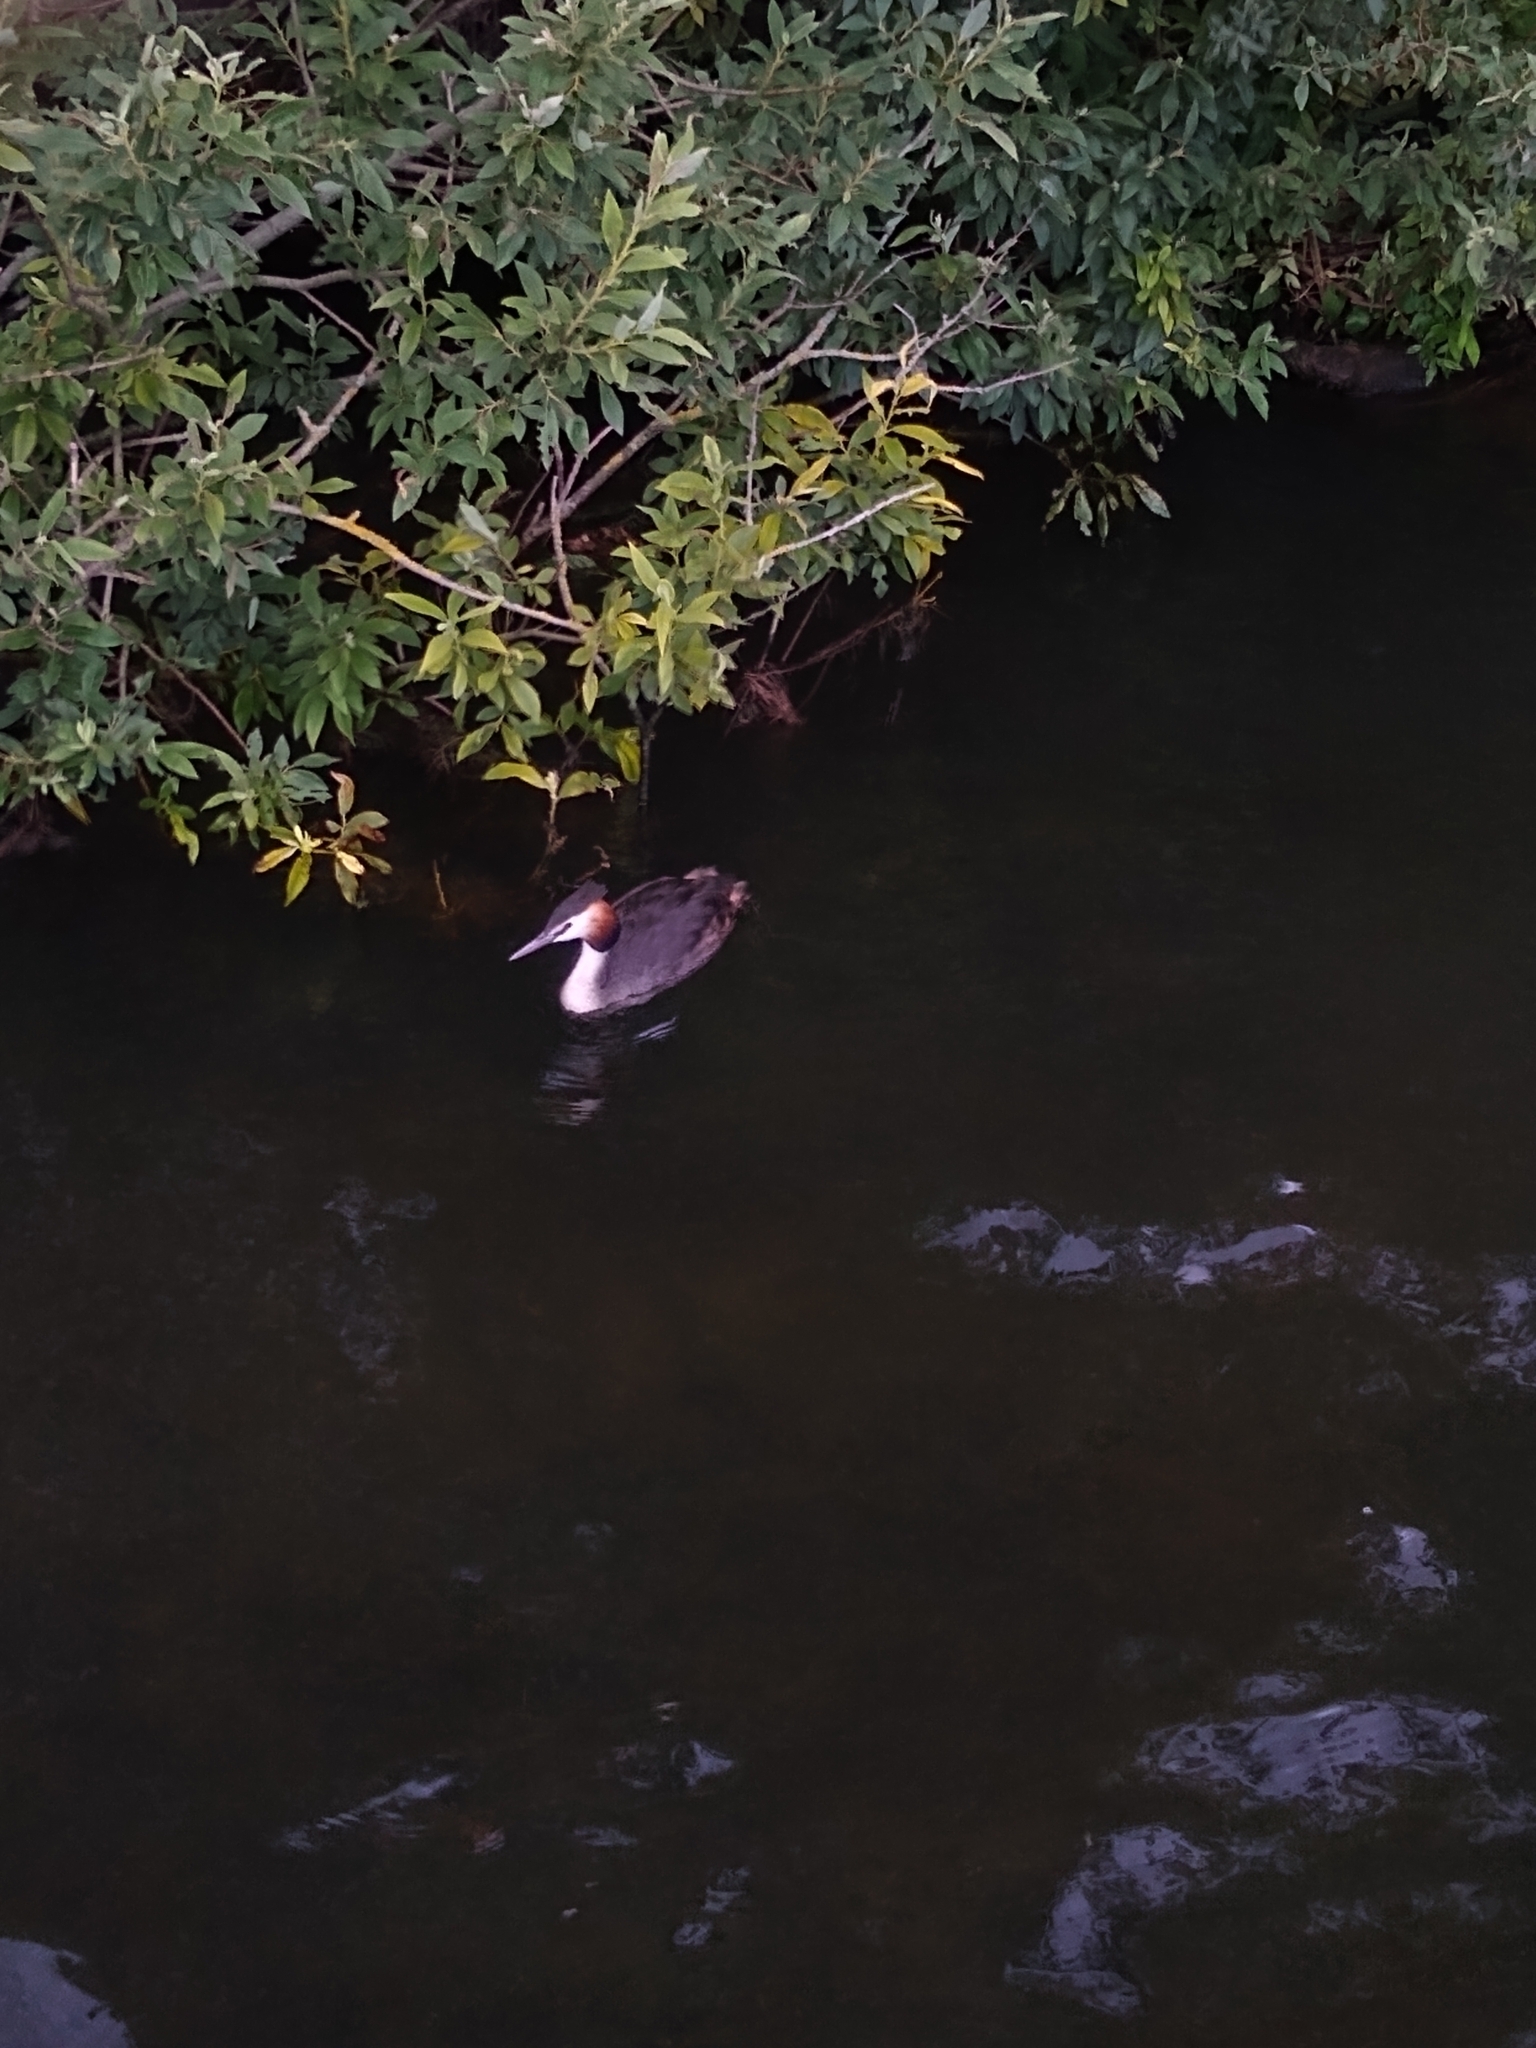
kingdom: Animalia
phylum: Chordata
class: Aves
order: Podicipediformes
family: Podicipedidae
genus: Podiceps
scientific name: Podiceps cristatus
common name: Great crested grebe
